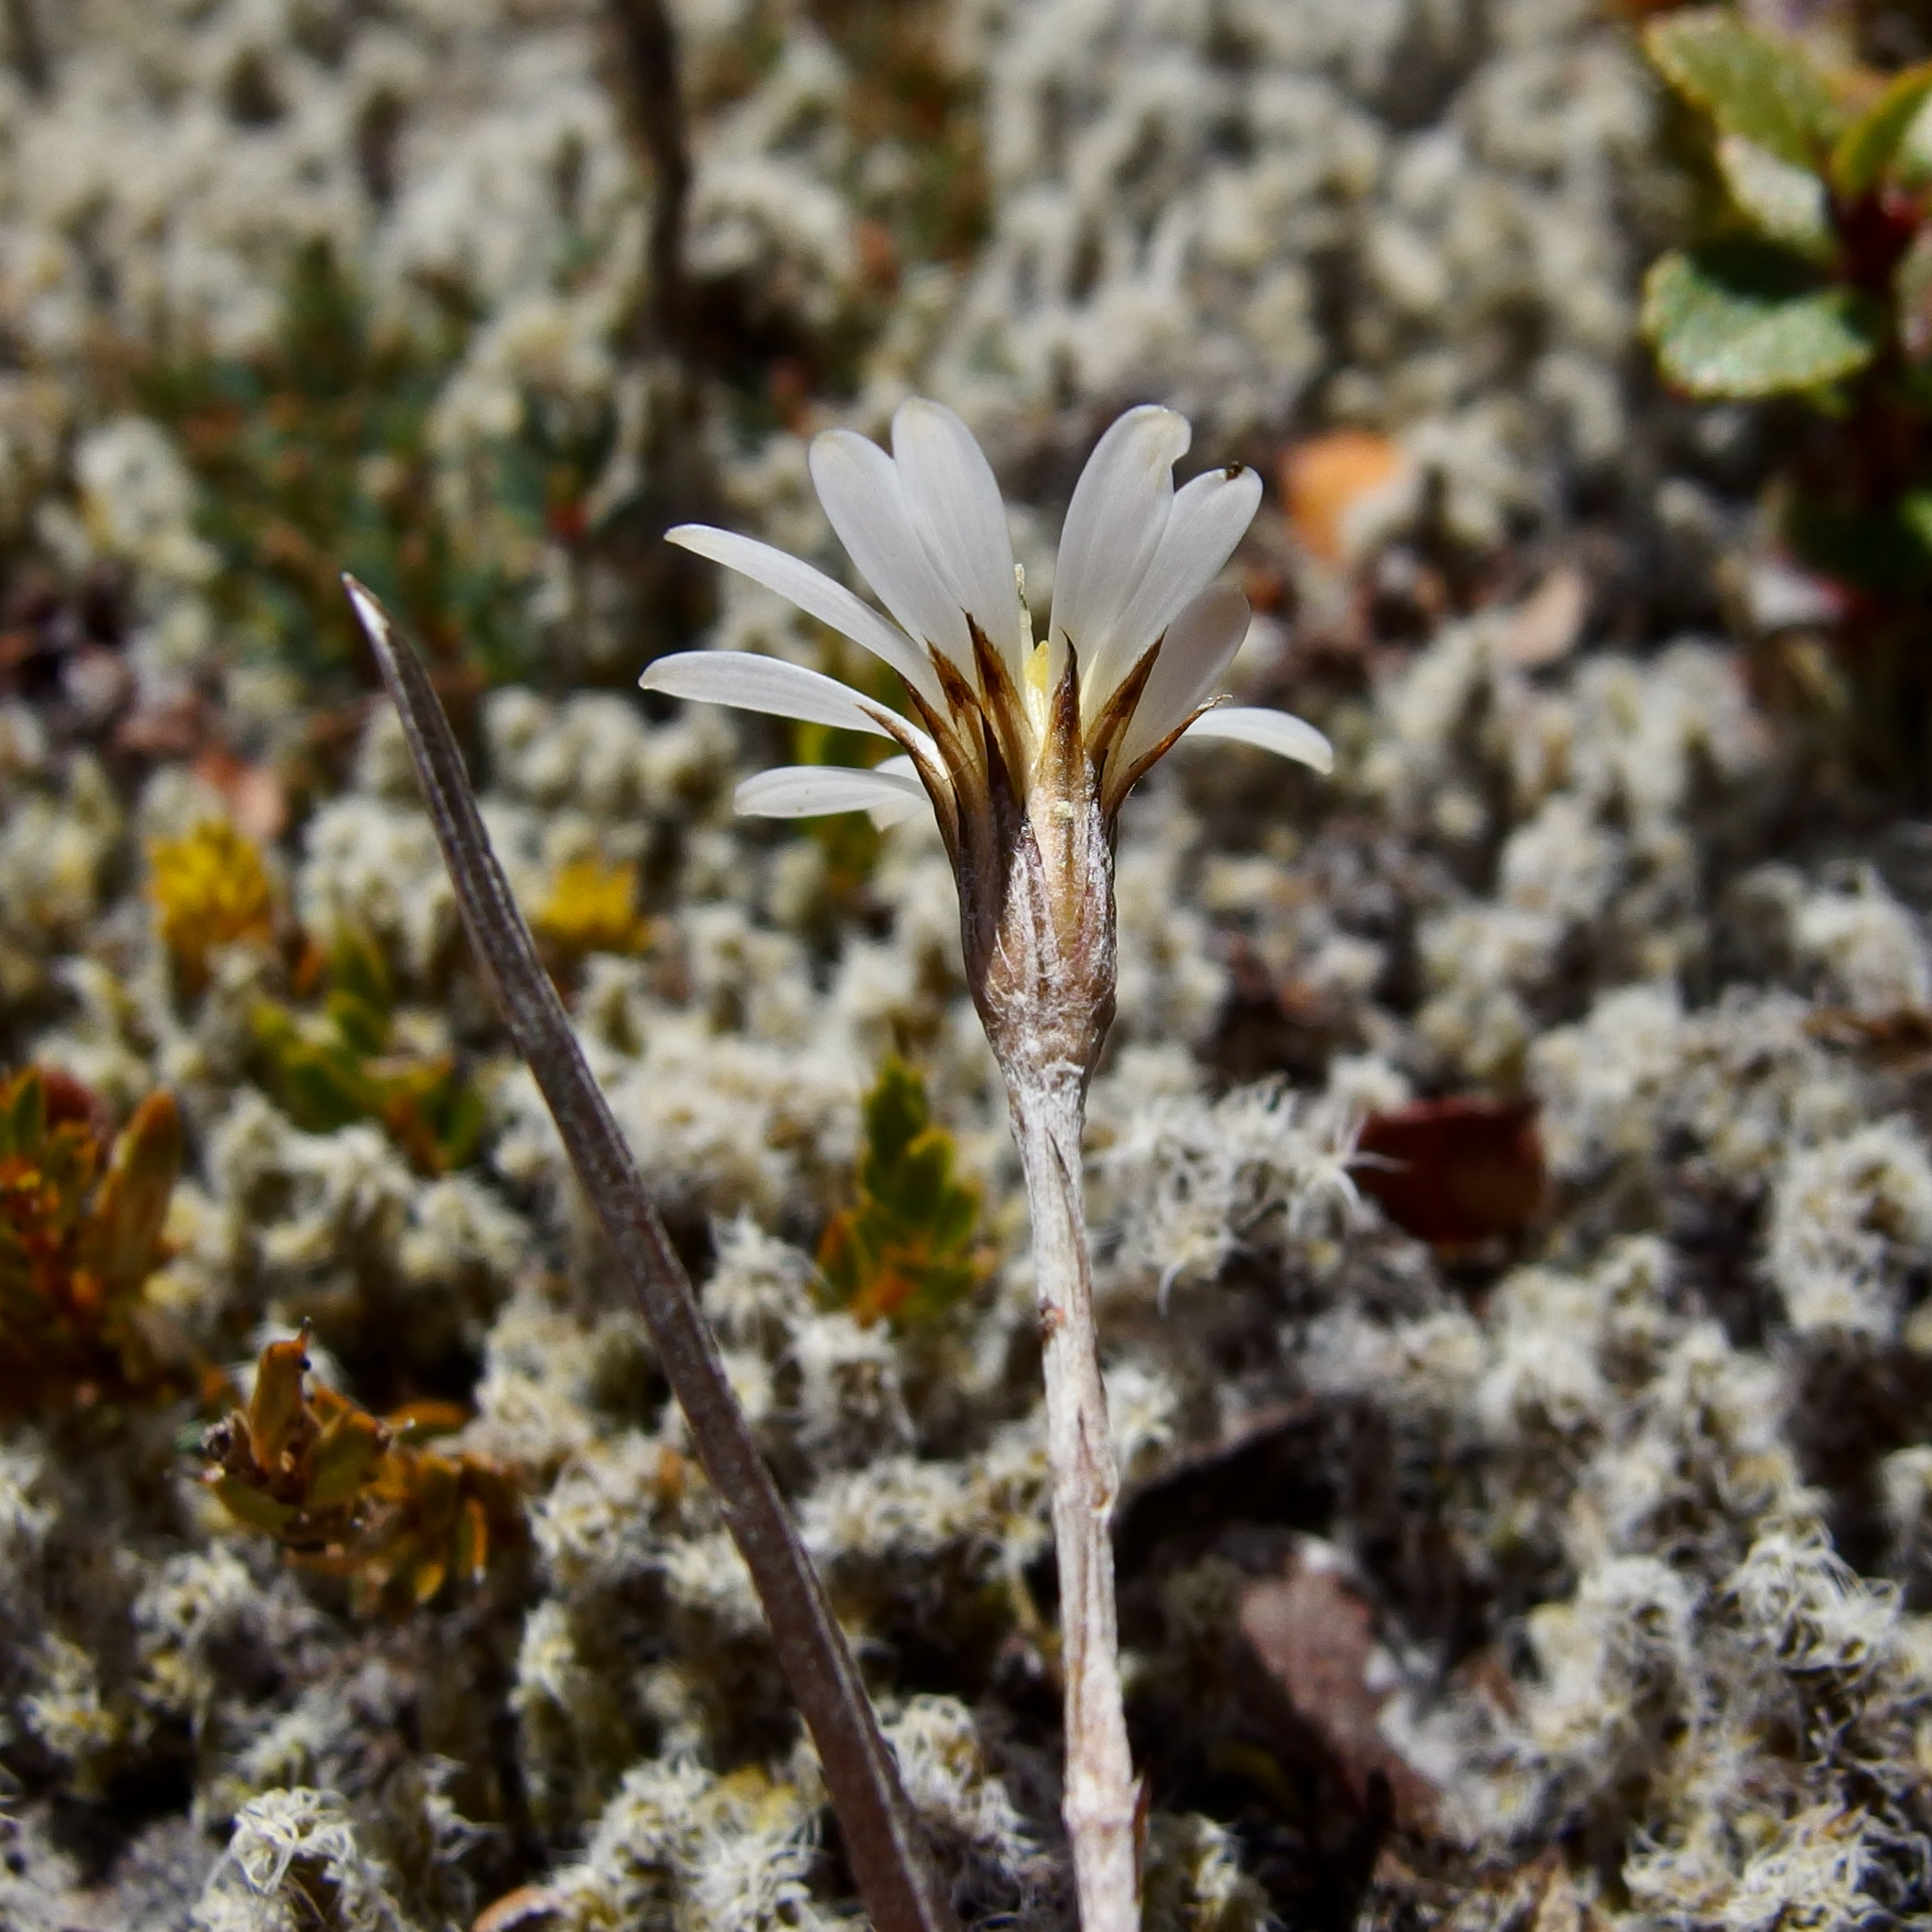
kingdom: Plantae
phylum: Tracheophyta
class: Magnoliopsida
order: Asterales
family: Asteraceae
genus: Celmisia
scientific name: Celmisia gracilenta
